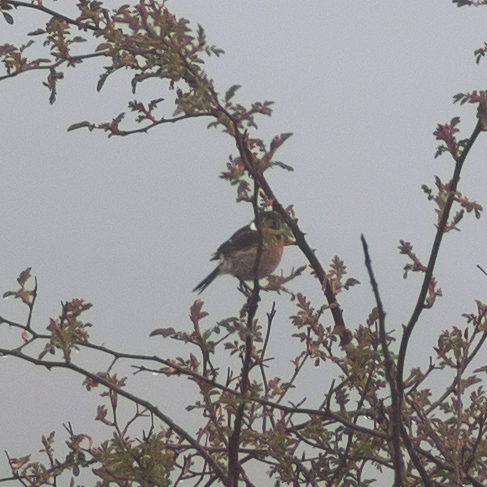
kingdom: Animalia
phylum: Chordata
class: Aves
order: Passeriformes
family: Muscicapidae
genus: Saxicola
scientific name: Saxicola rubicola
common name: European stonechat
